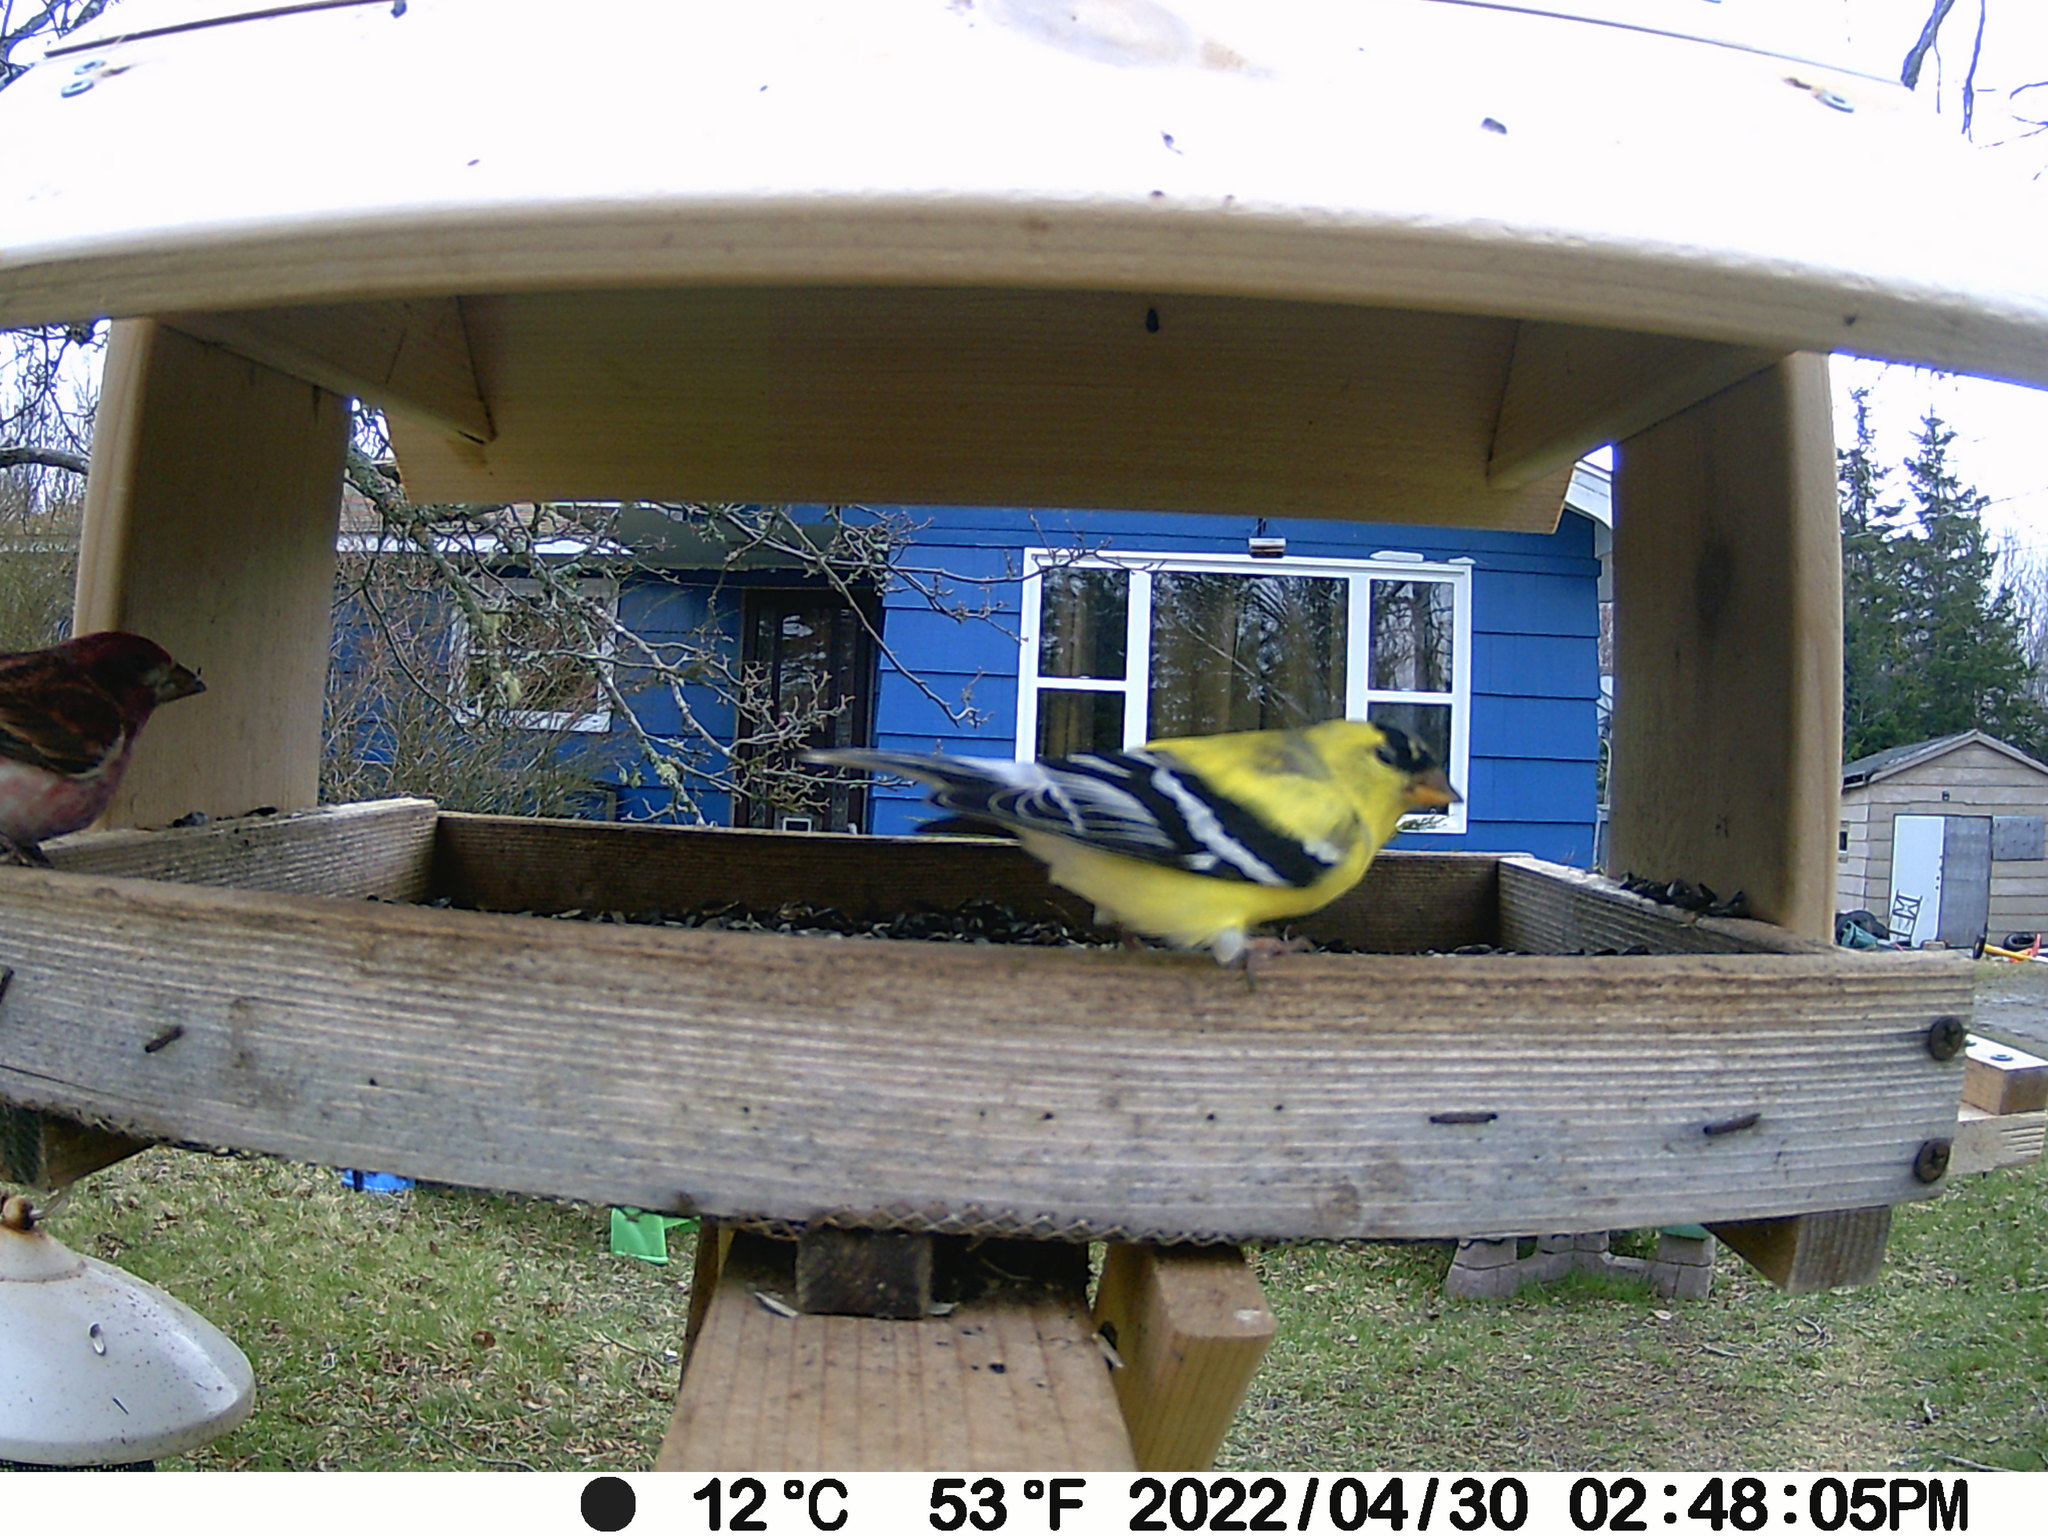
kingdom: Animalia
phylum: Chordata
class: Aves
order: Passeriformes
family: Fringillidae
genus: Haemorhous
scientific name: Haemorhous purpureus
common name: Purple finch
